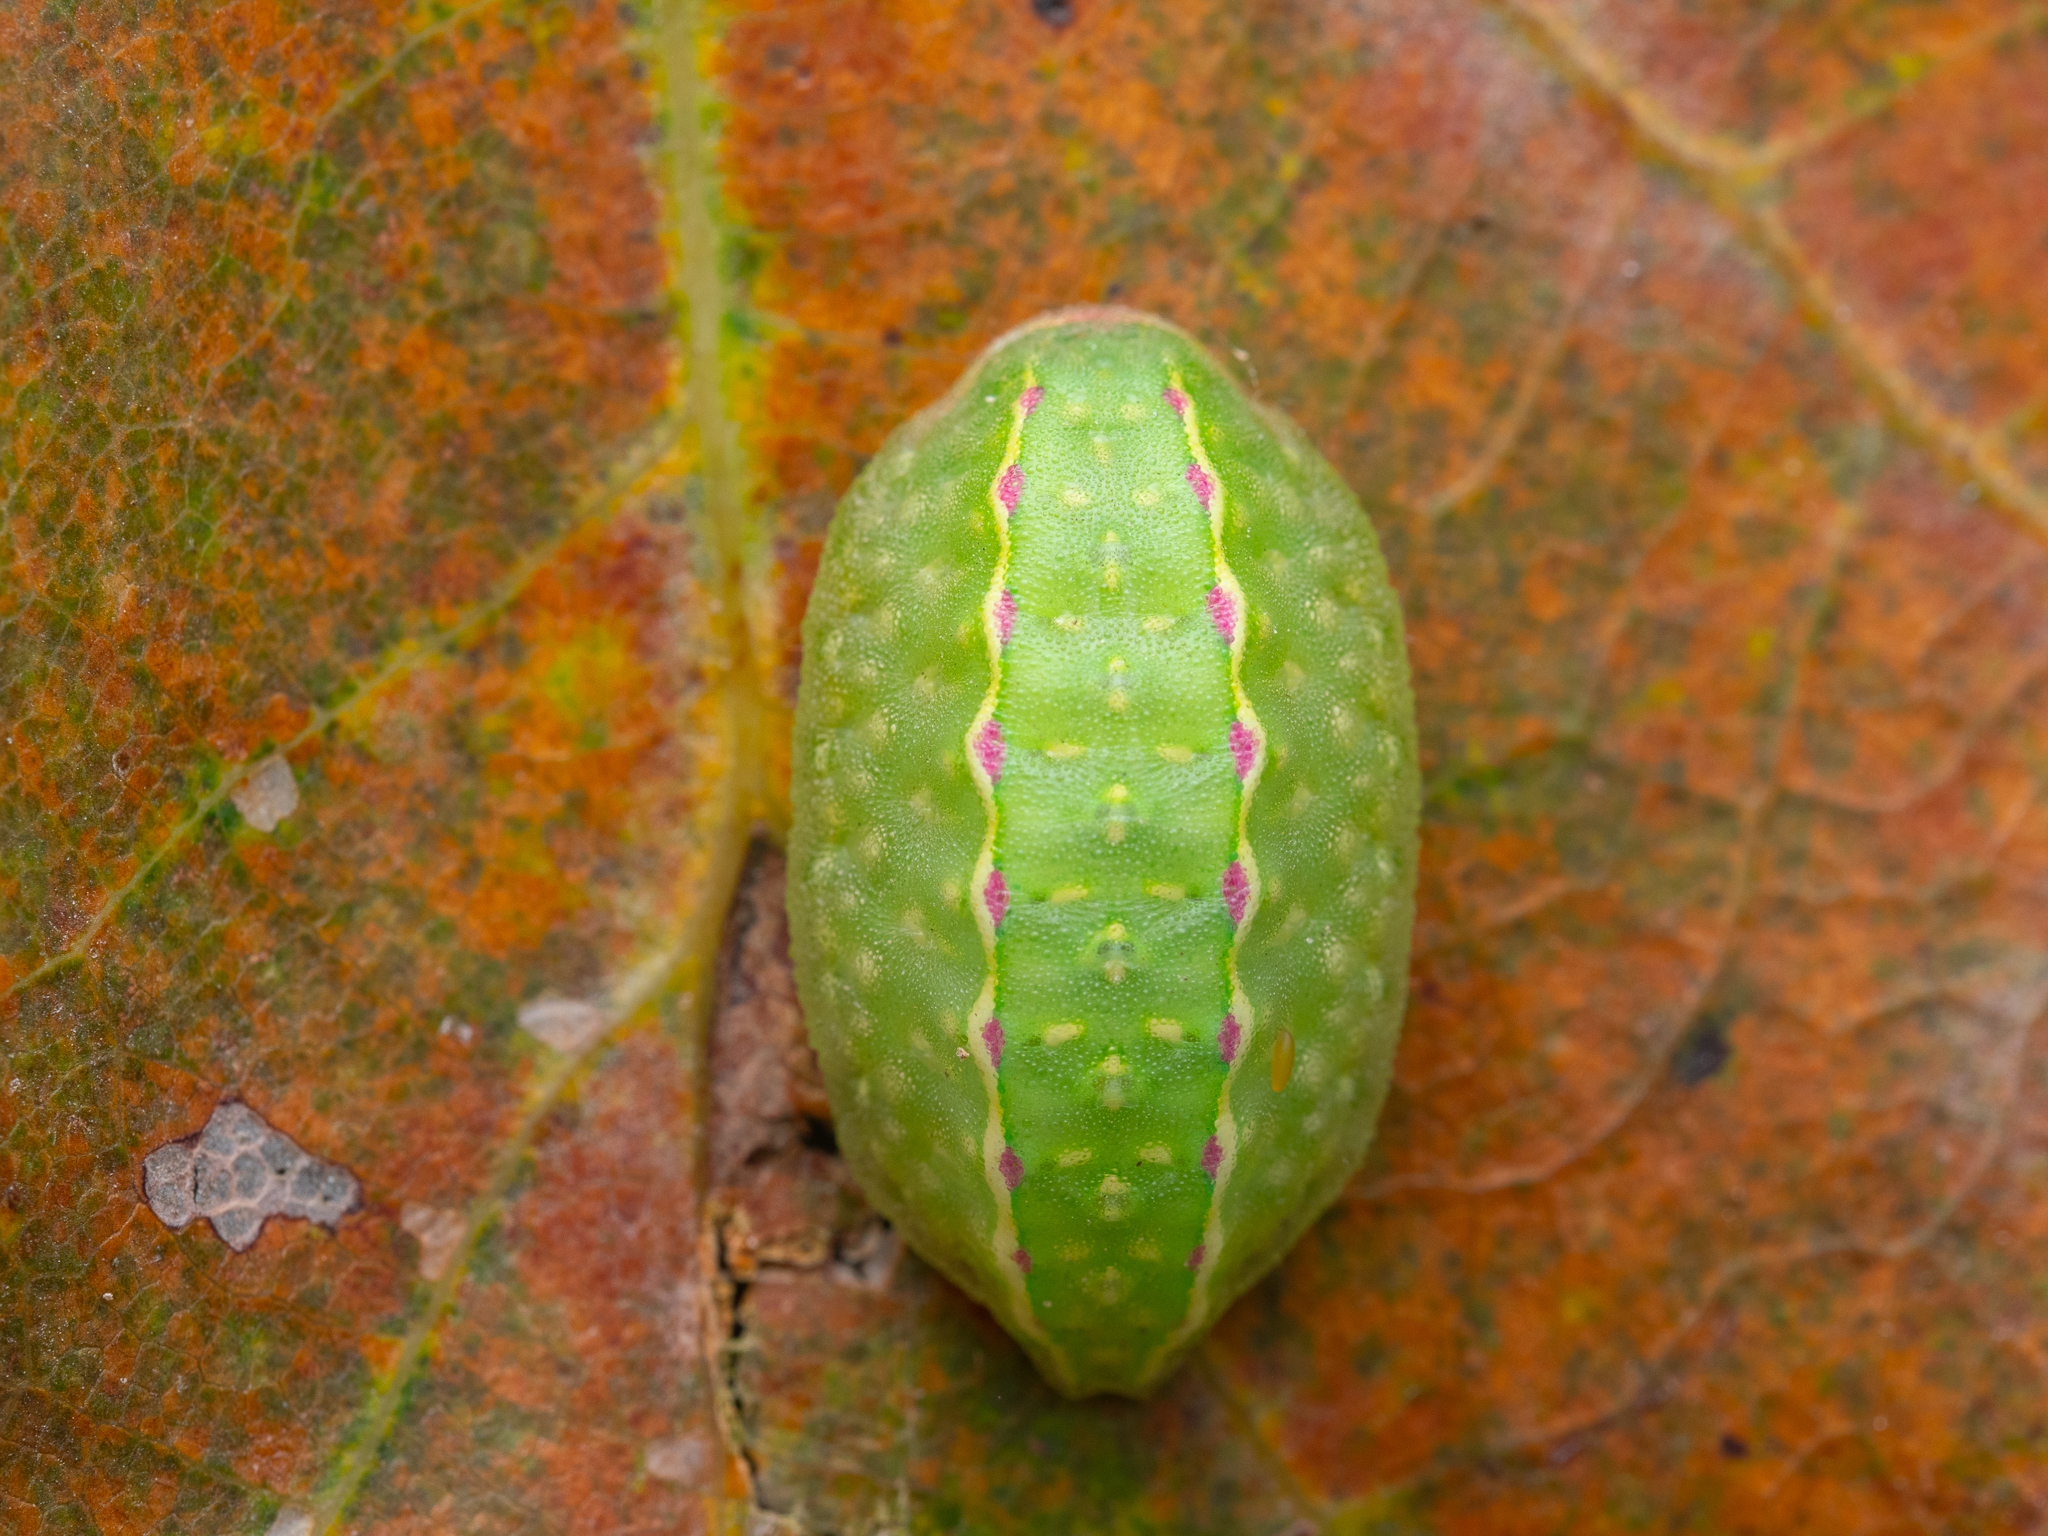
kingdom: Animalia
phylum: Arthropoda
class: Insecta
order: Lepidoptera
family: Limacodidae
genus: Apoda
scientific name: Apoda limacodes
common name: Festoon
